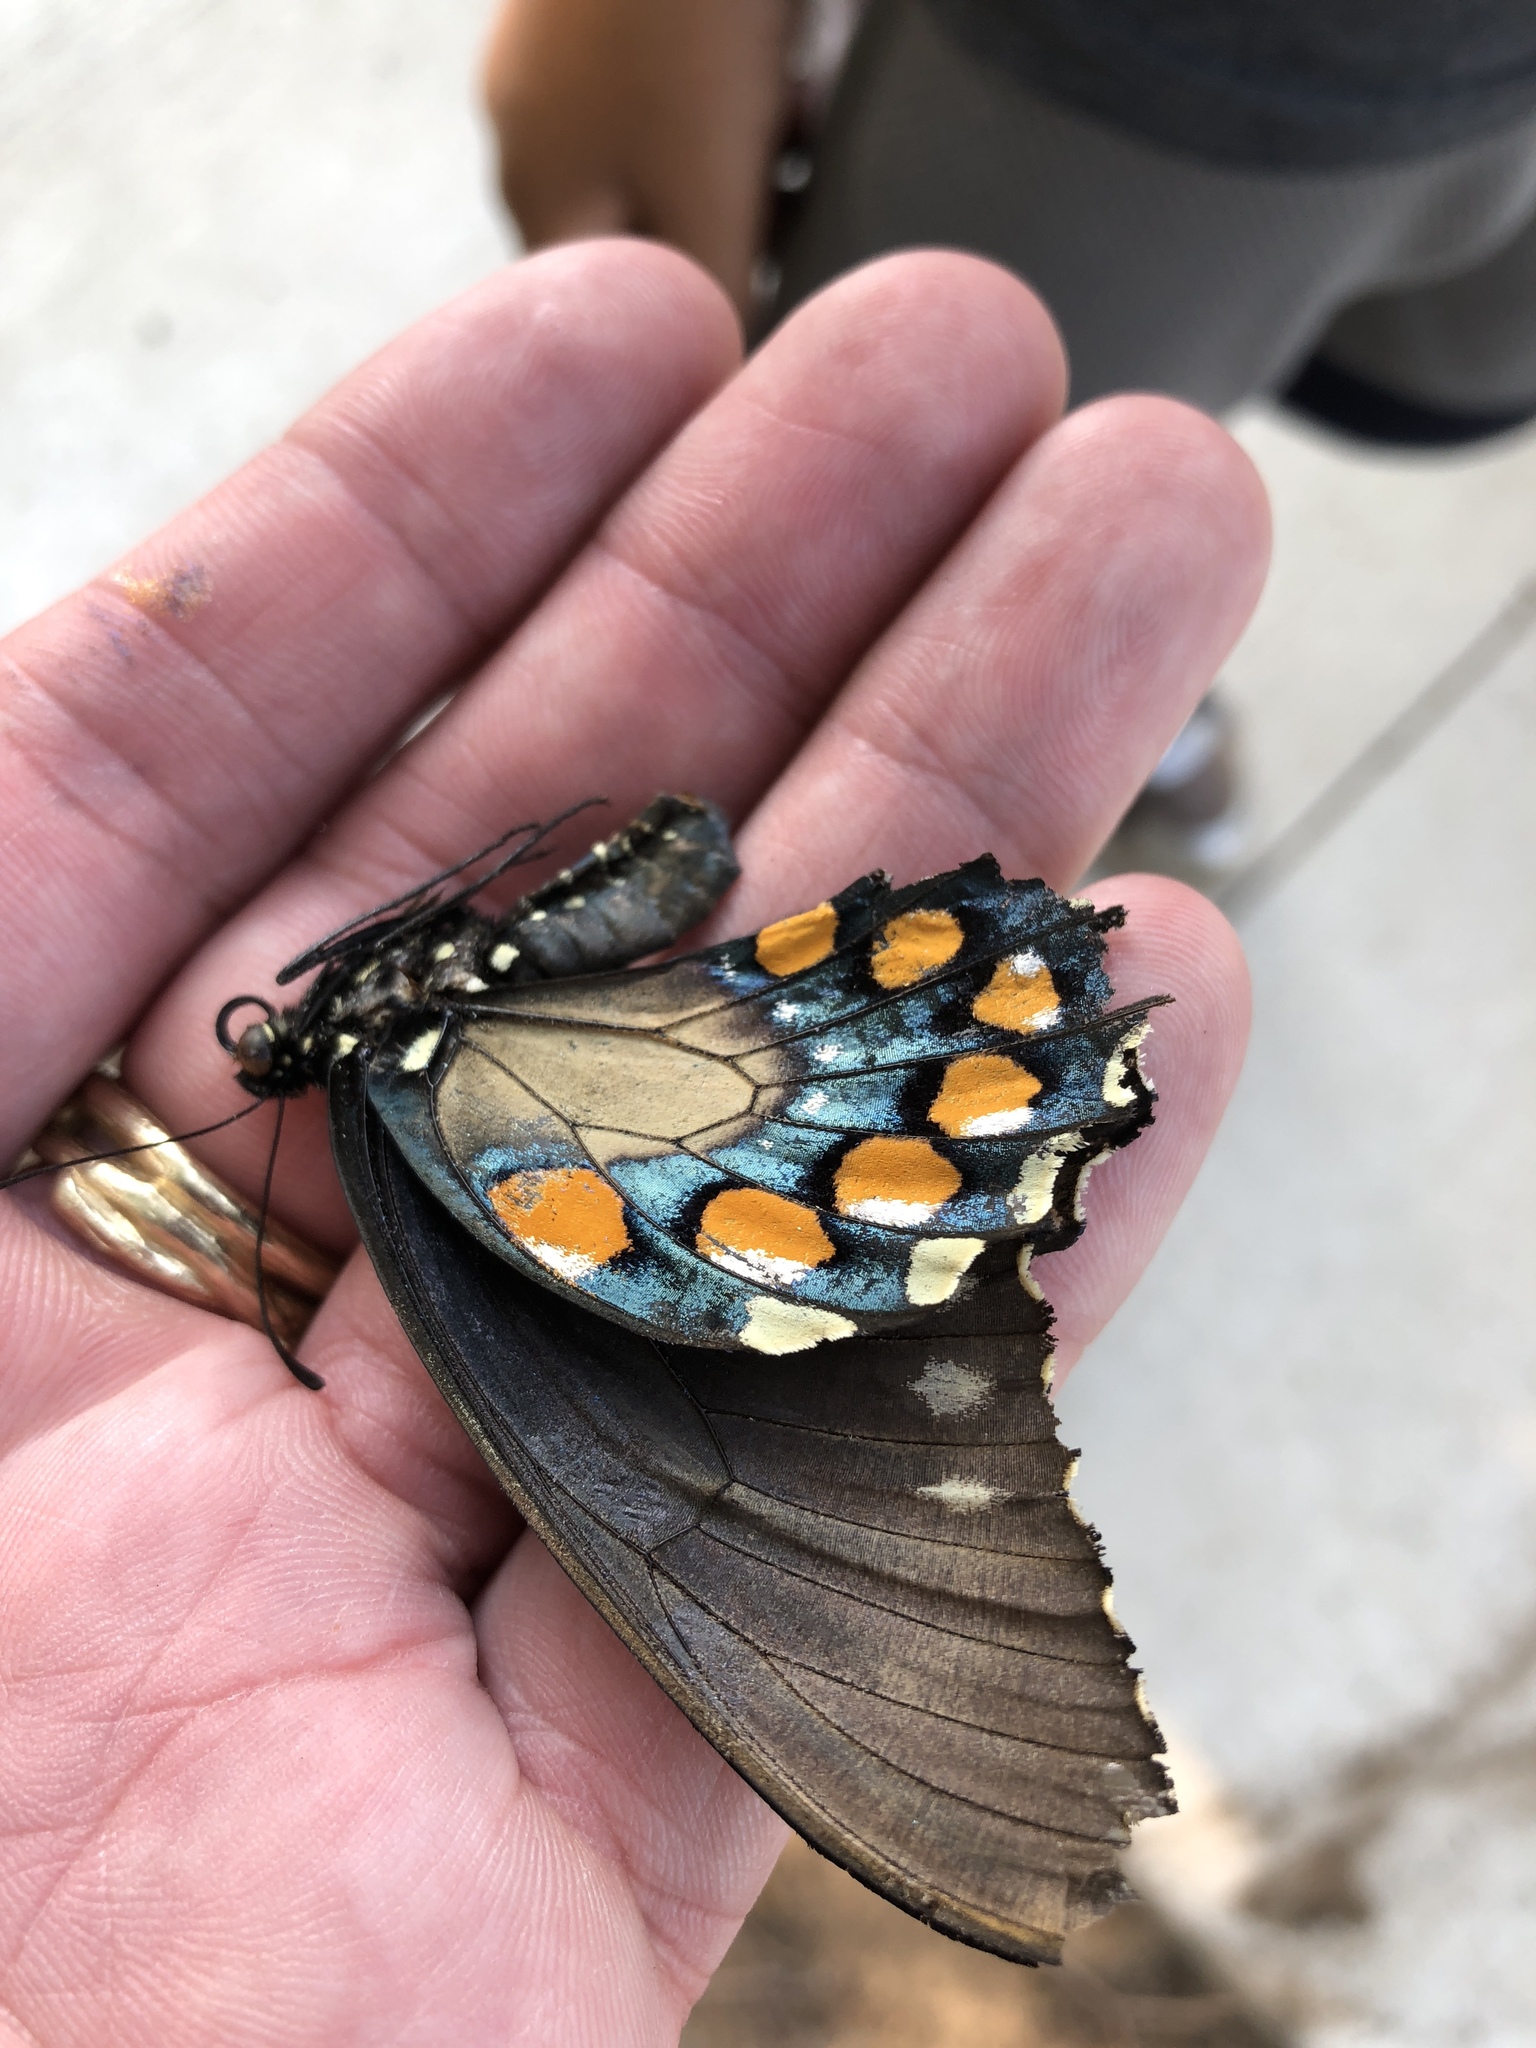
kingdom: Animalia
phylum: Arthropoda
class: Insecta
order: Lepidoptera
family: Papilionidae
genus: Battus
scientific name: Battus philenor
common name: Pipevine swallowtail
